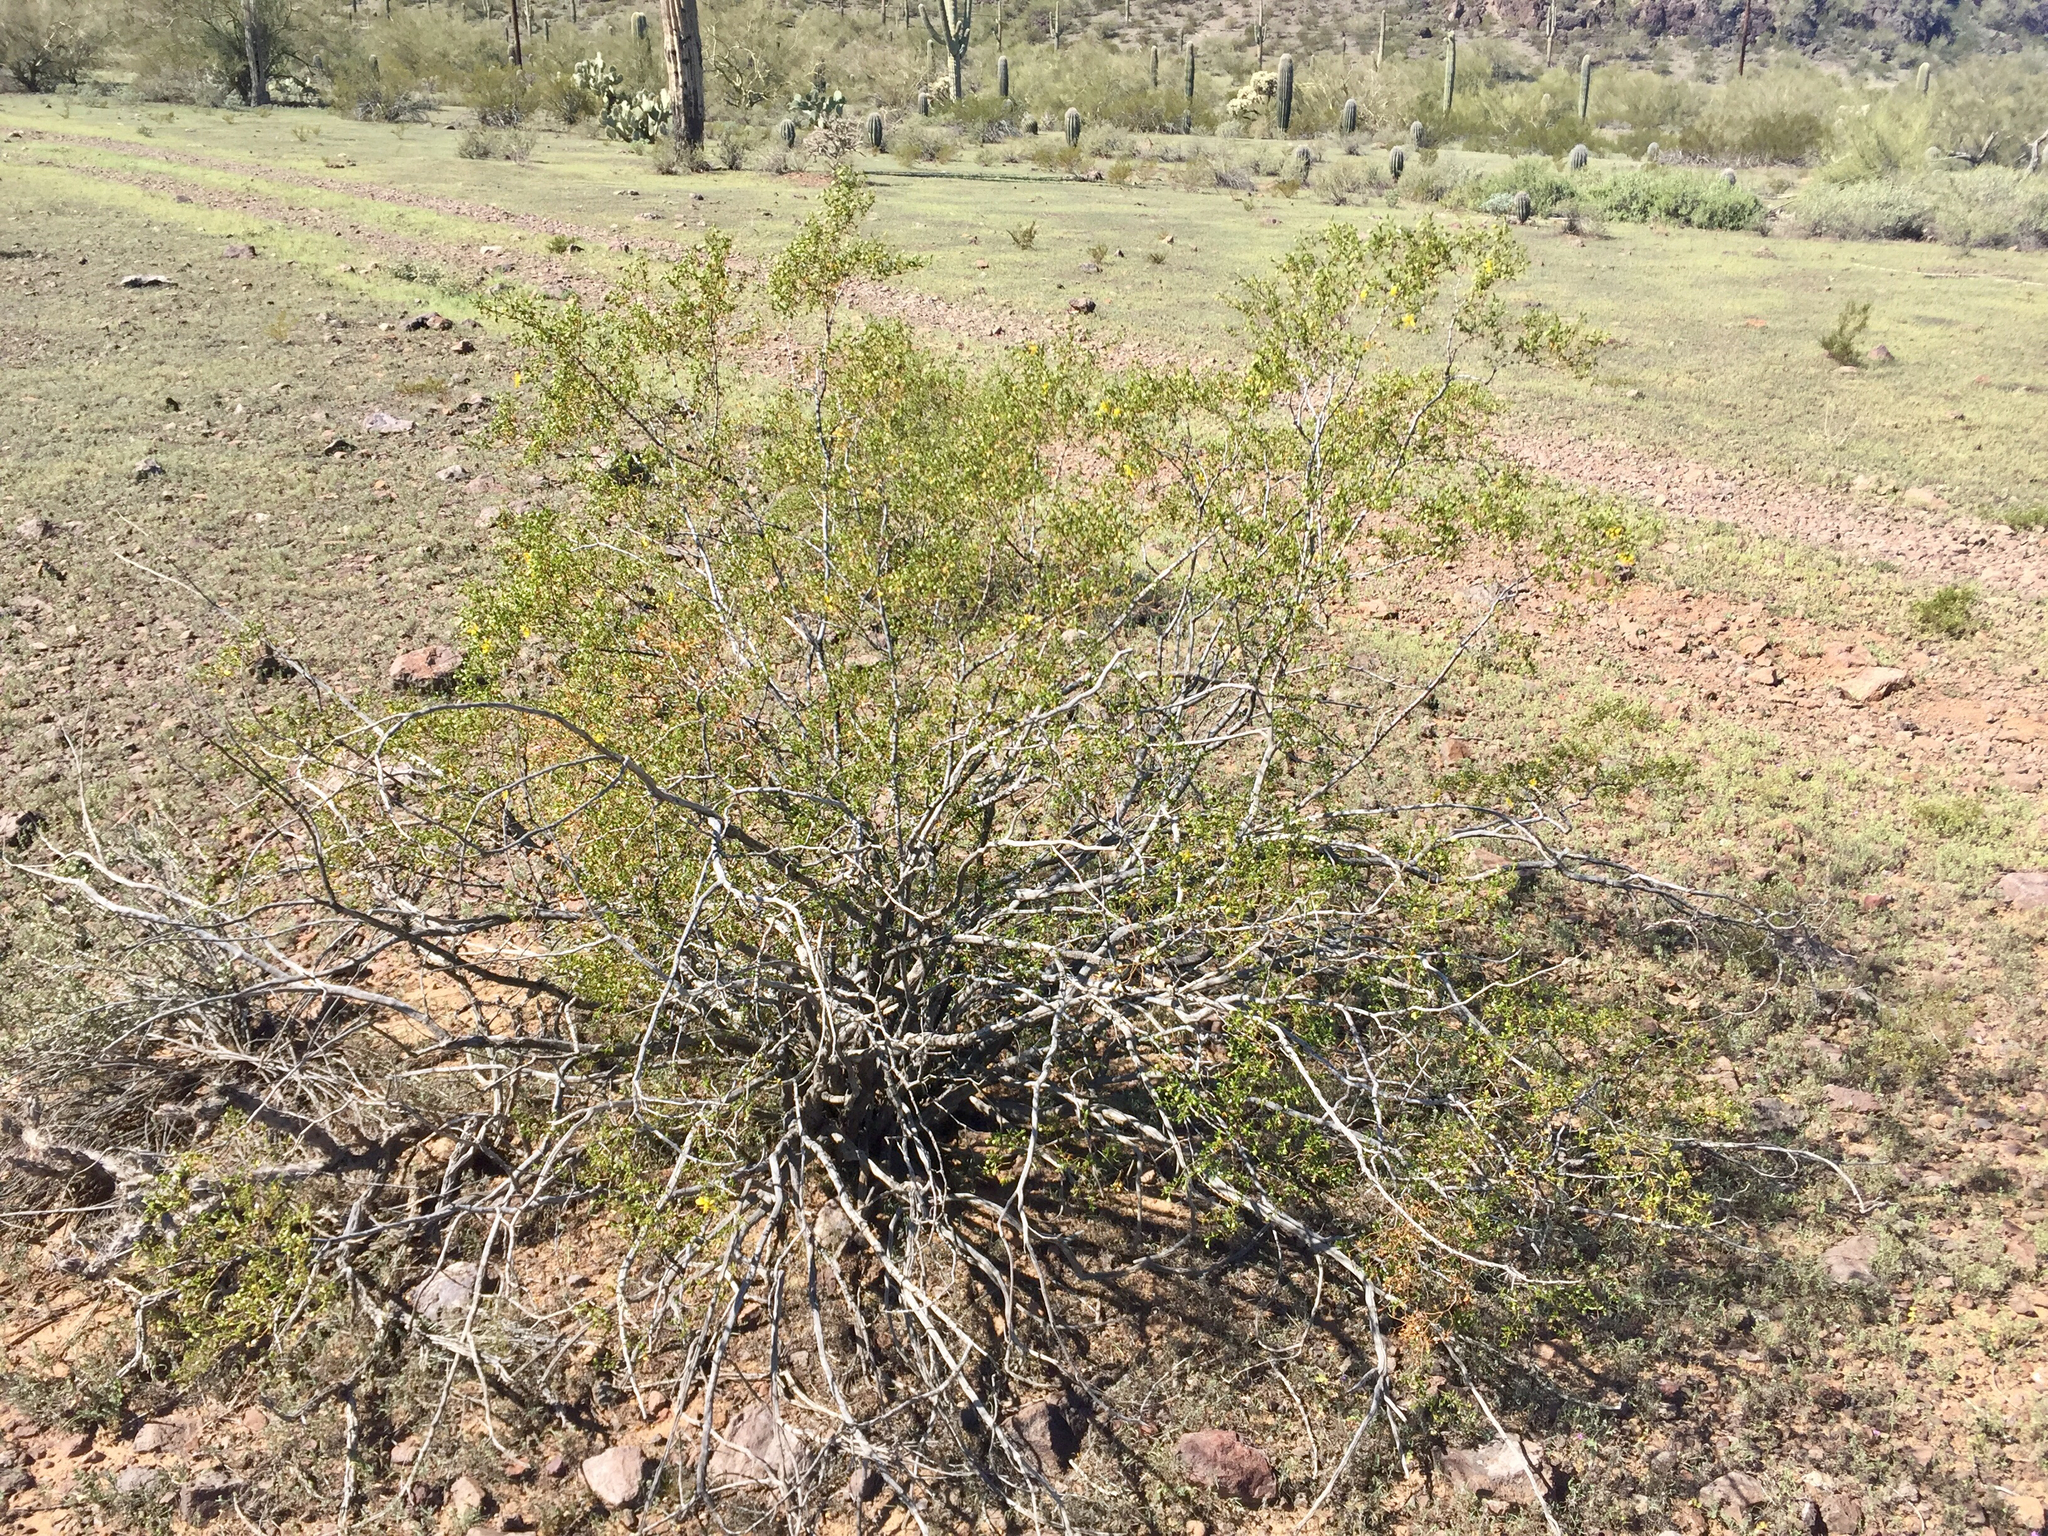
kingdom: Plantae
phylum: Tracheophyta
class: Magnoliopsida
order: Zygophyllales
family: Zygophyllaceae
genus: Larrea
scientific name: Larrea tridentata
